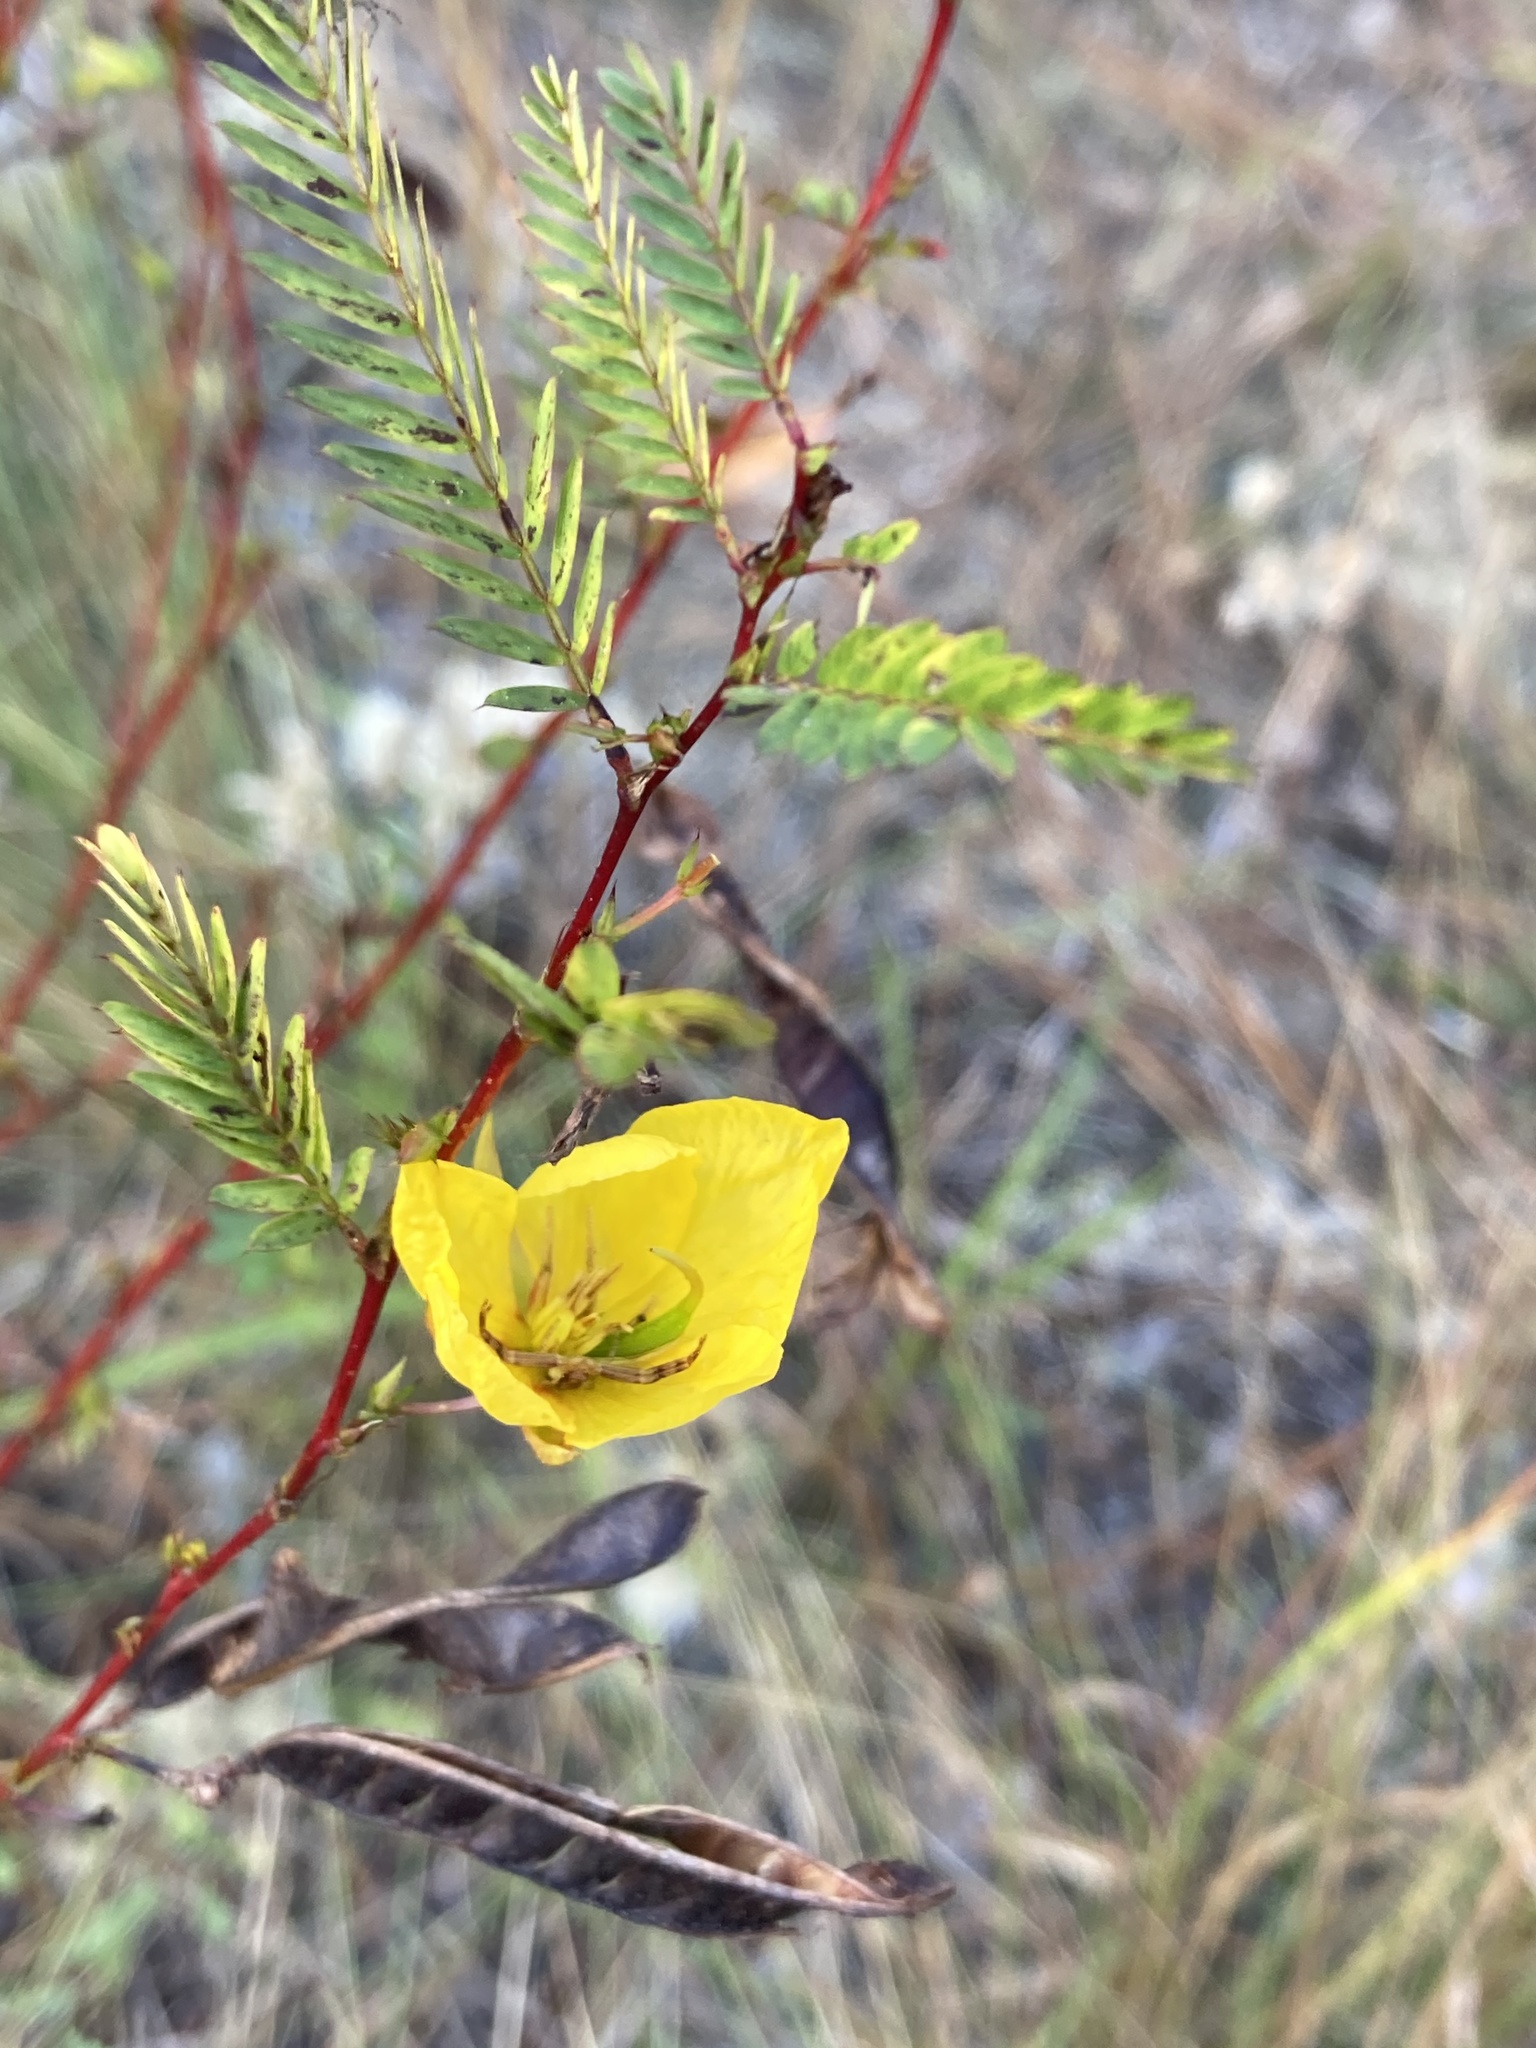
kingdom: Plantae
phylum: Tracheophyta
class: Magnoliopsida
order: Fabales
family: Fabaceae
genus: Chamaecrista
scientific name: Chamaecrista fasciculata
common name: Golden cassia
